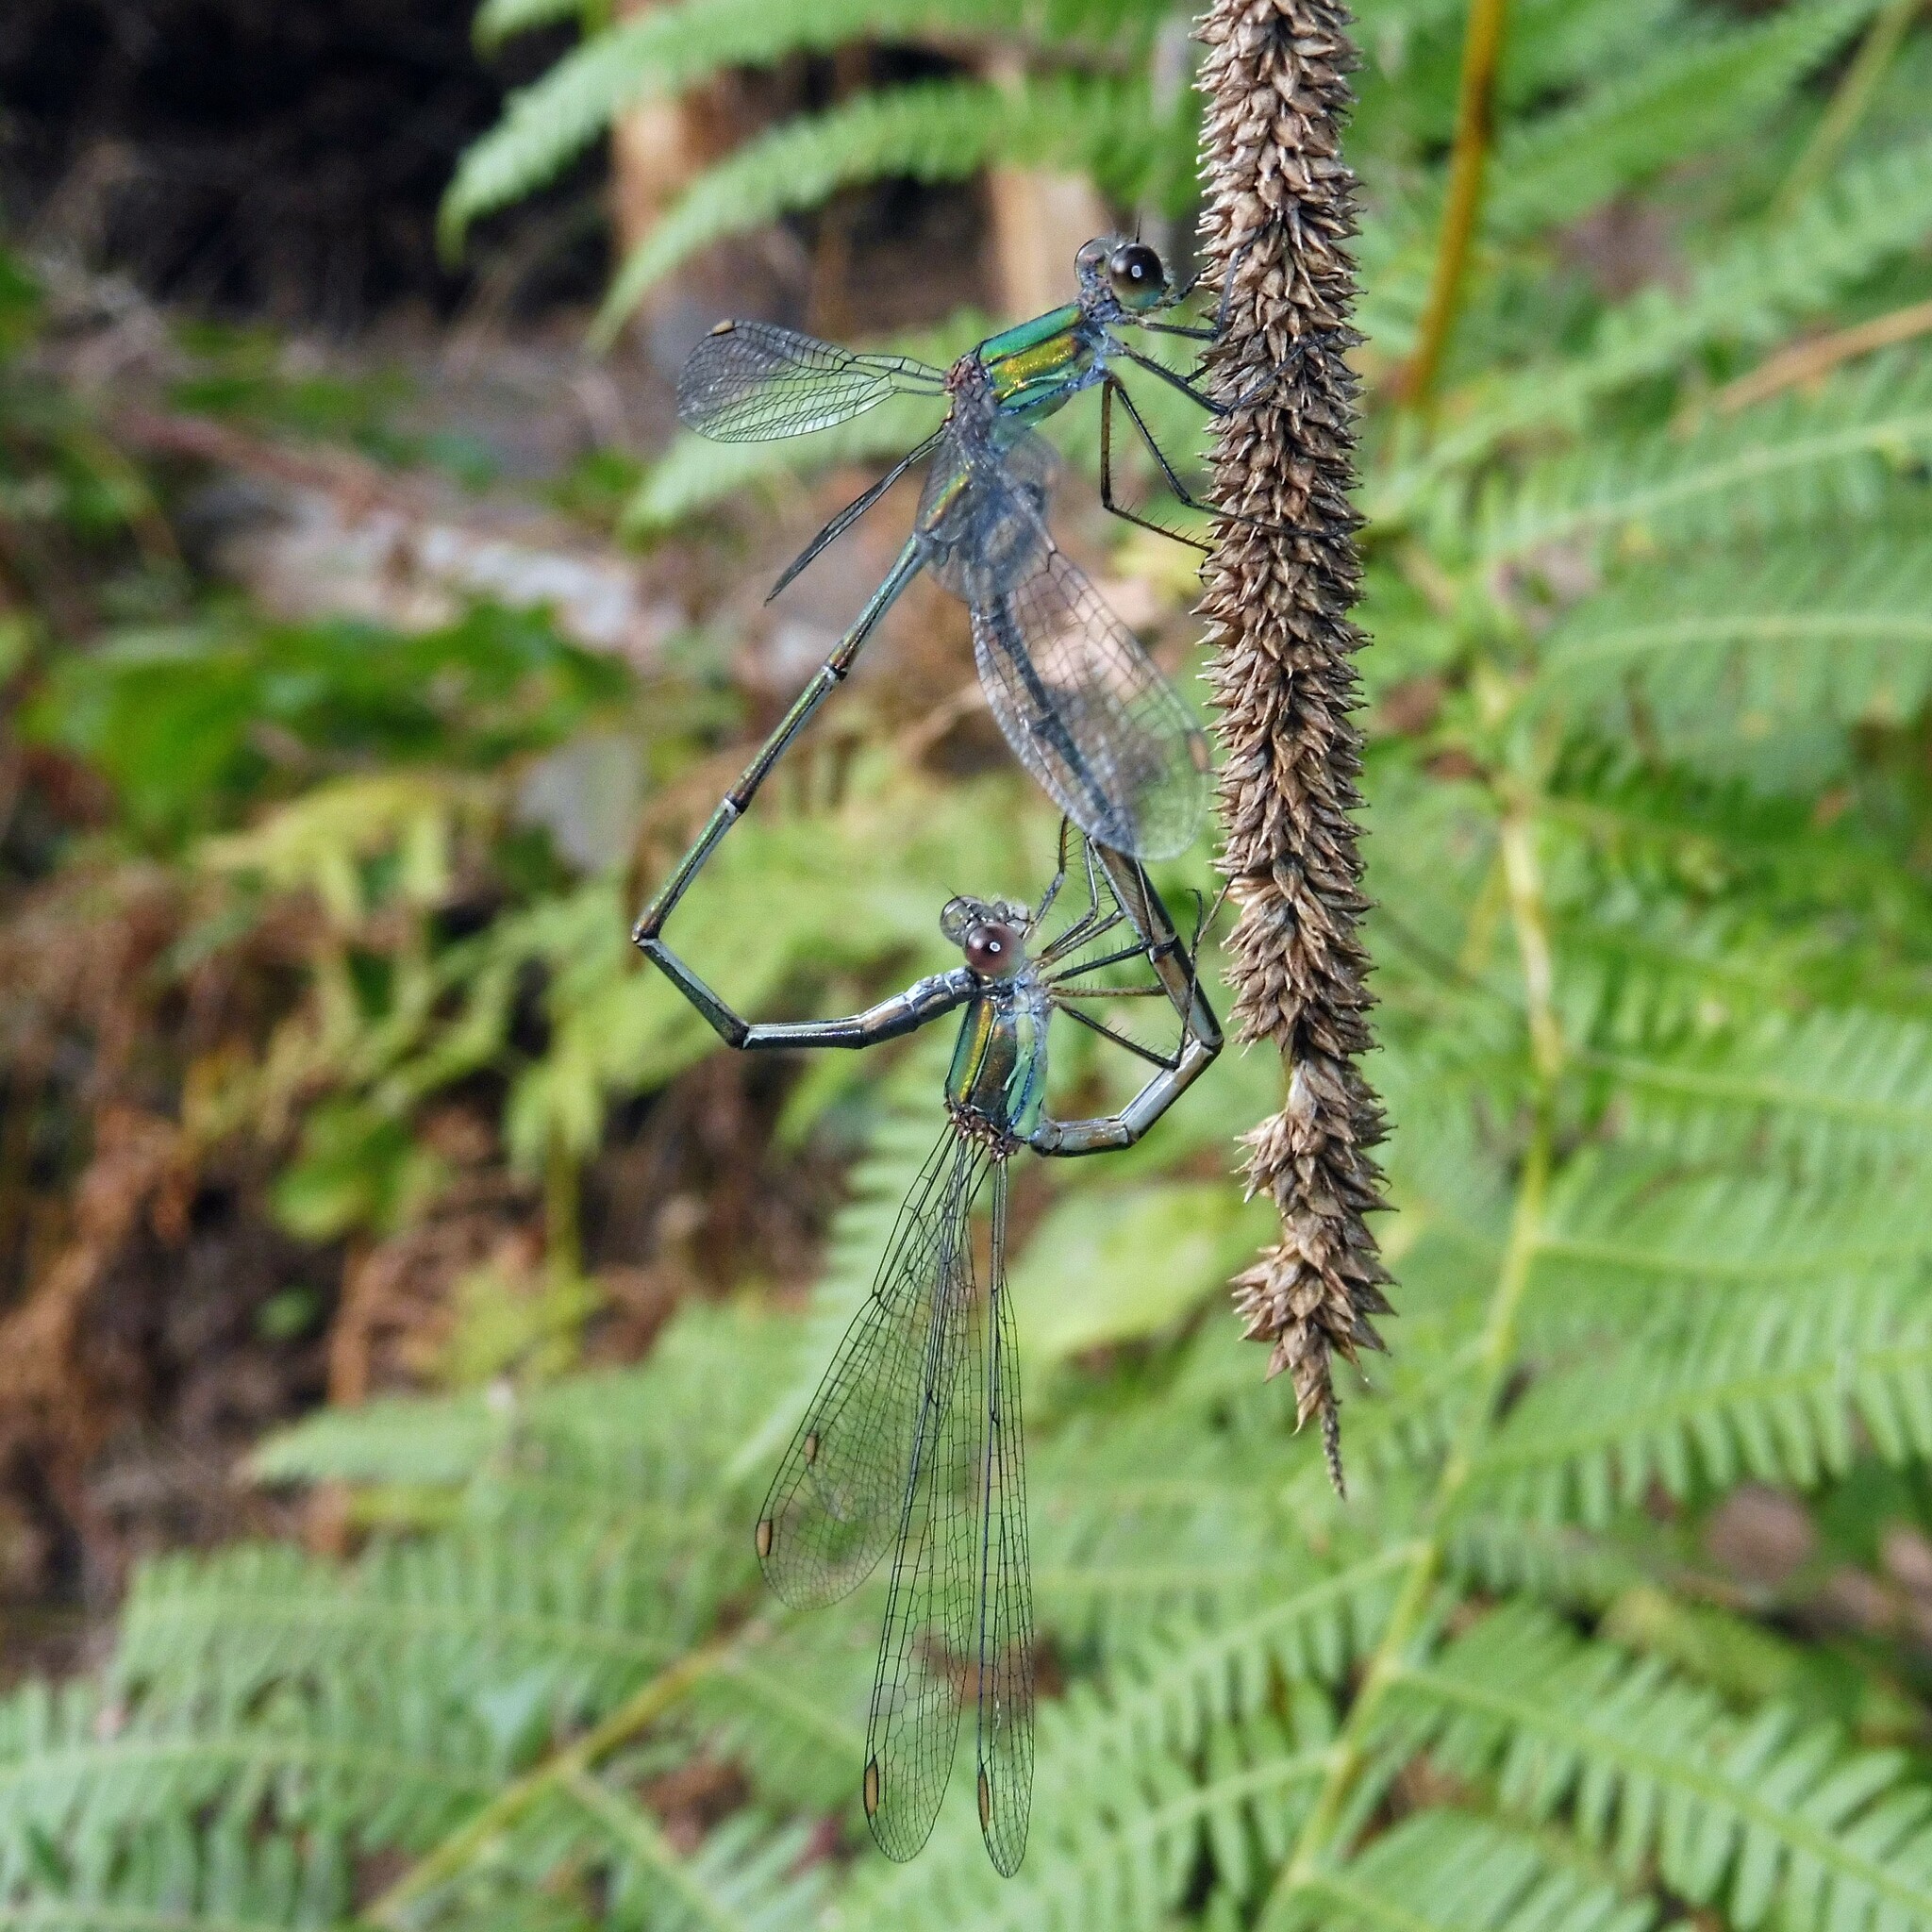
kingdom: Animalia
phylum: Arthropoda
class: Insecta
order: Odonata
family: Lestidae
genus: Chalcolestes
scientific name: Chalcolestes viridis
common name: Green emerald damselfly
